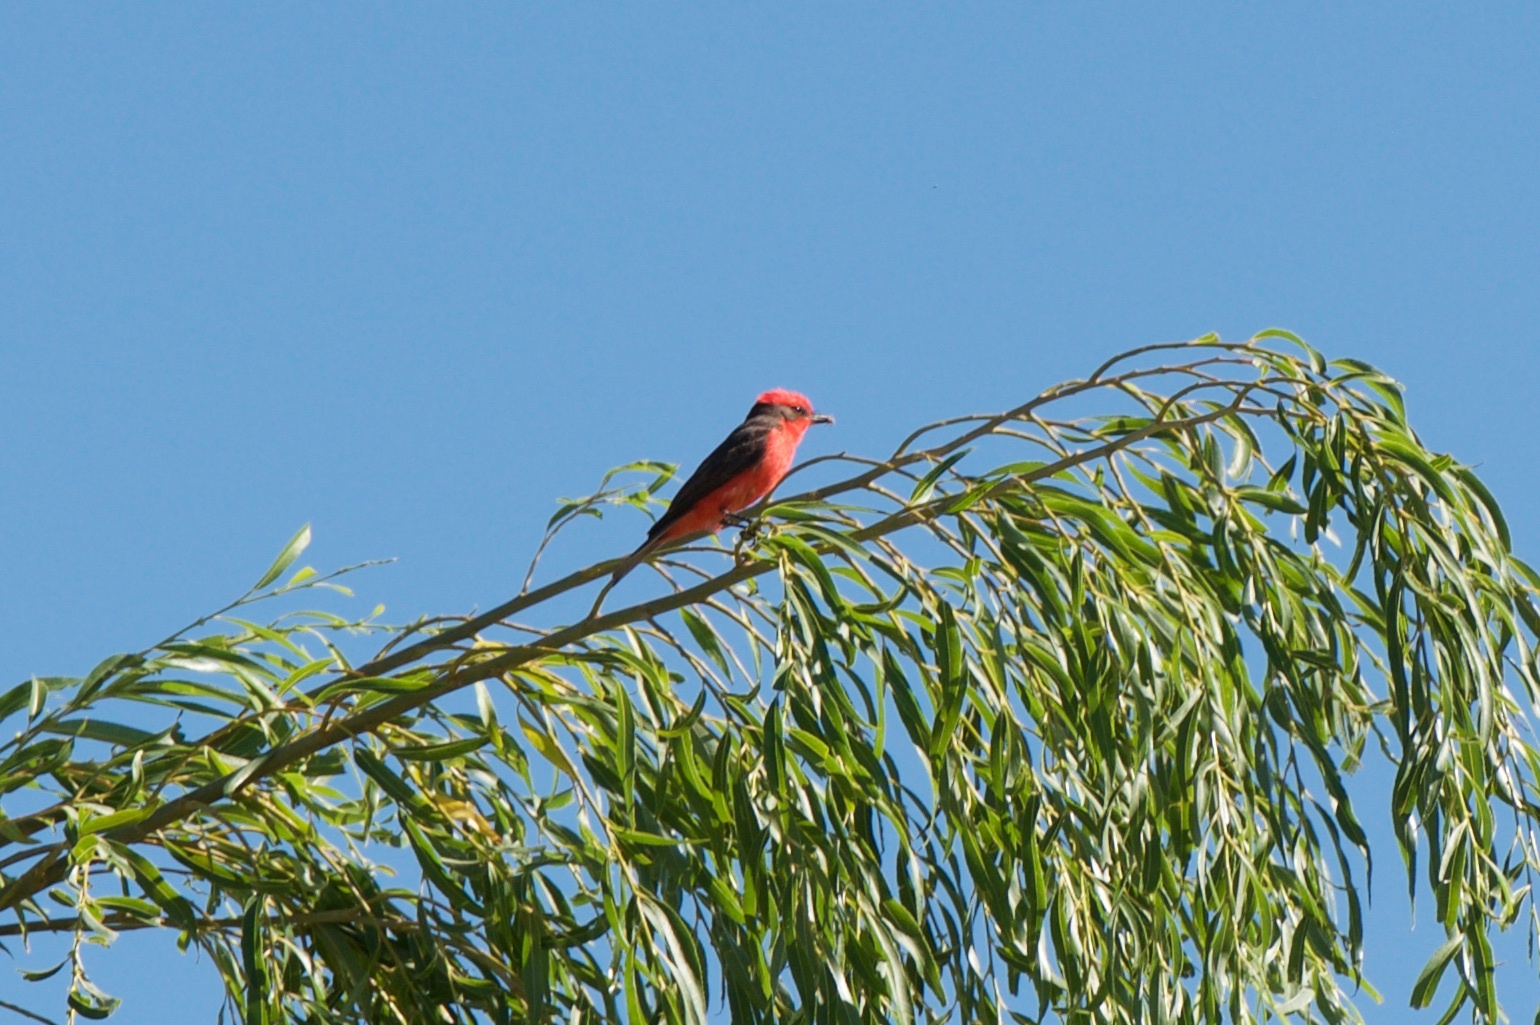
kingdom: Animalia
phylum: Chordata
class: Aves
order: Passeriformes
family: Tyrannidae
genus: Pyrocephalus
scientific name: Pyrocephalus rubinus
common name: Vermilion flycatcher
